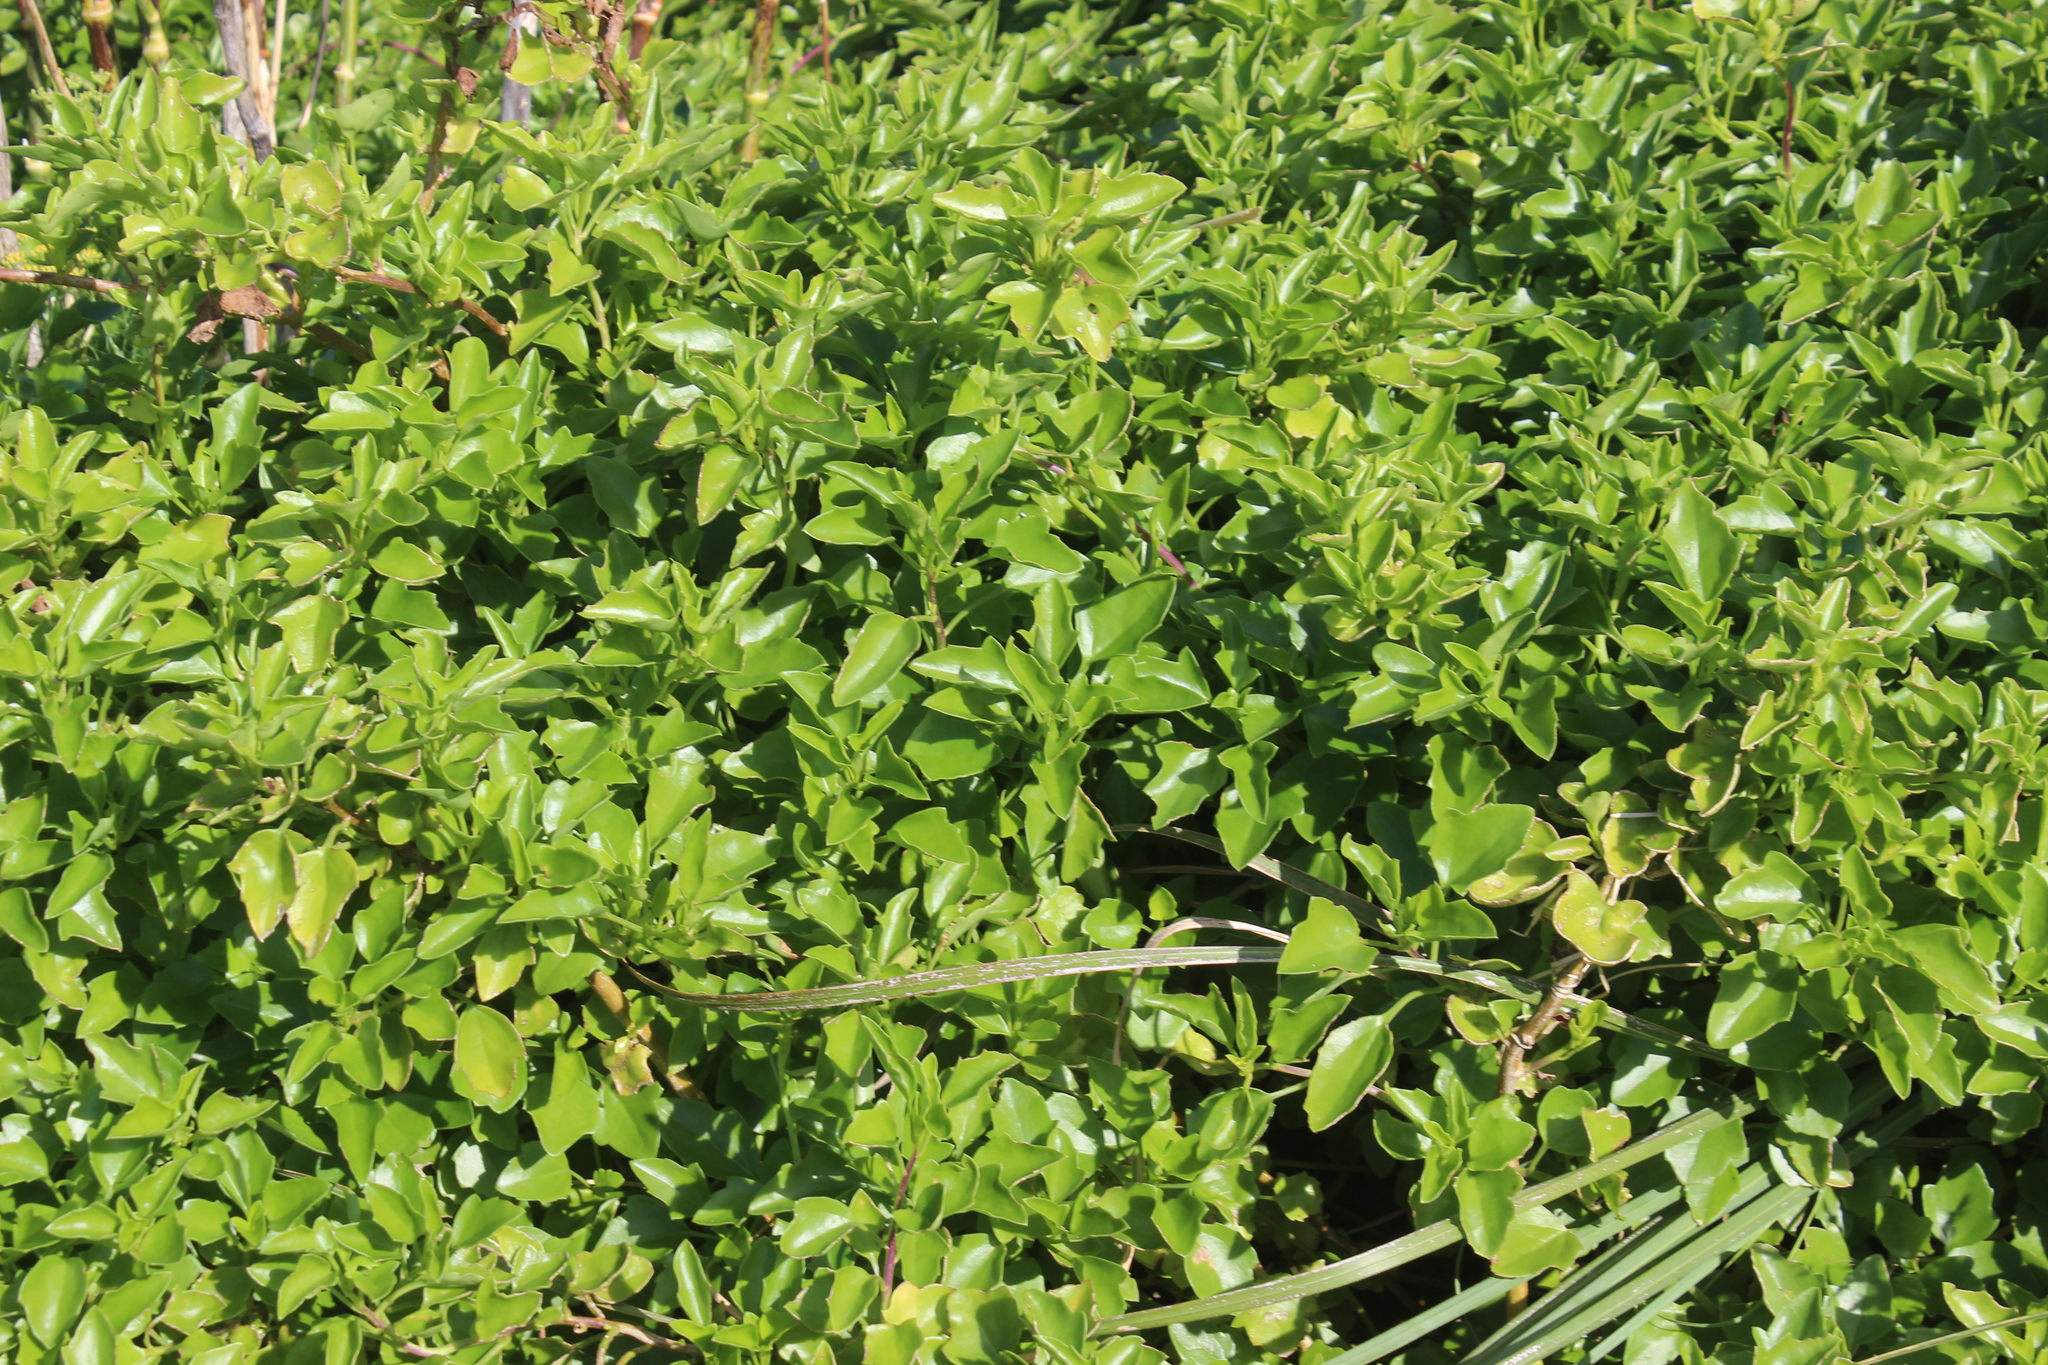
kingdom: Plantae
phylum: Tracheophyta
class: Magnoliopsida
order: Asterales
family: Asteraceae
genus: Senecio
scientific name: Senecio angulatus
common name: Climbing groundsel
